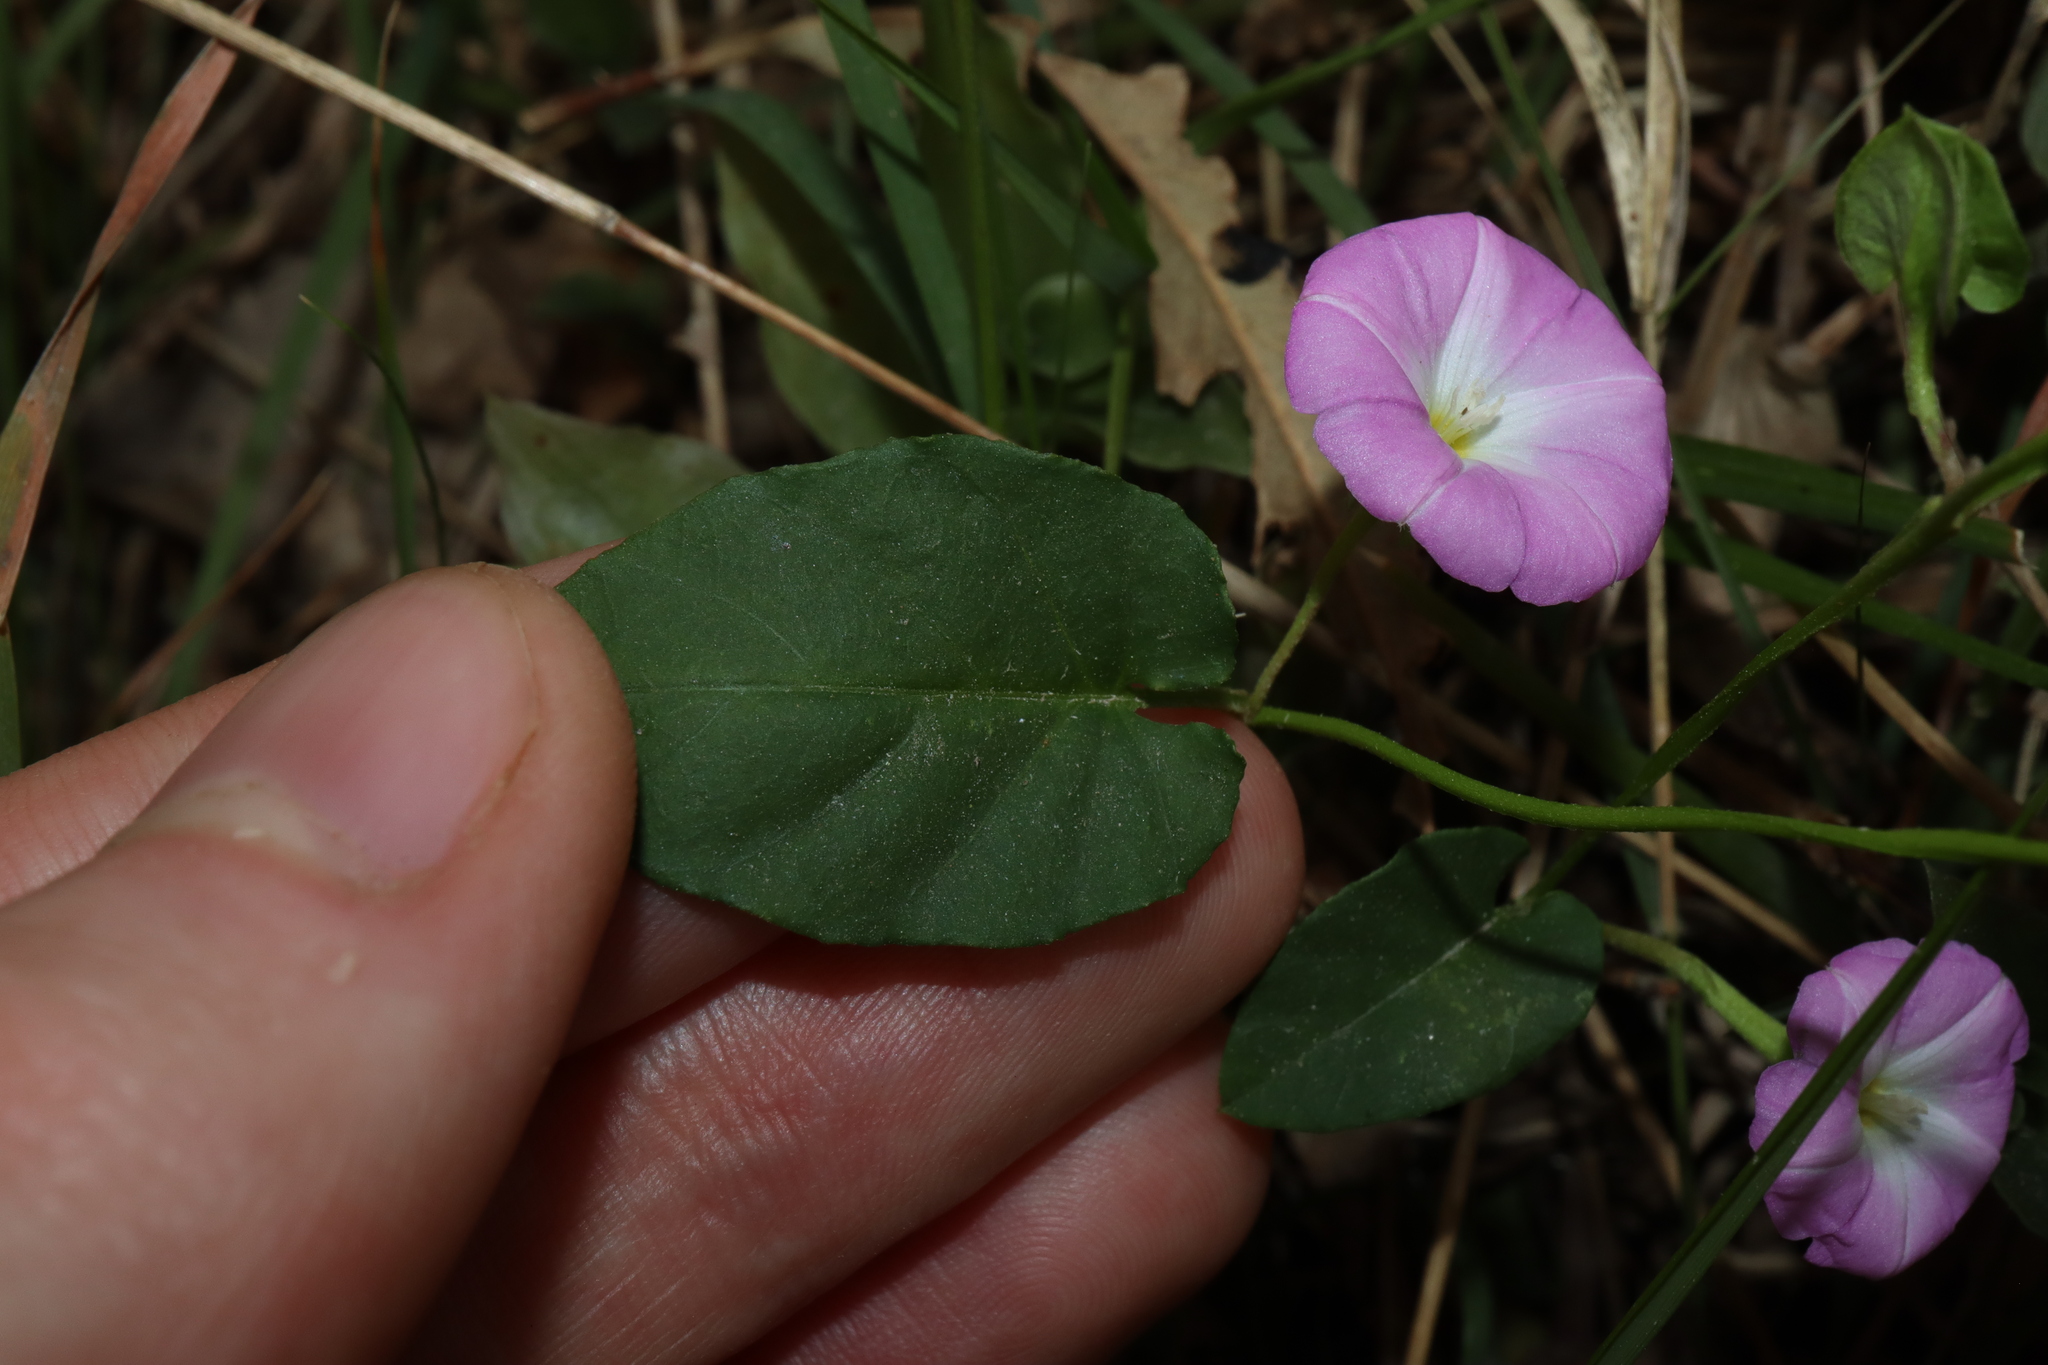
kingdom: Plantae
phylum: Tracheophyta
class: Magnoliopsida
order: Solanales
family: Convolvulaceae
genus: Polymeria
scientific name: Polymeria calycina
